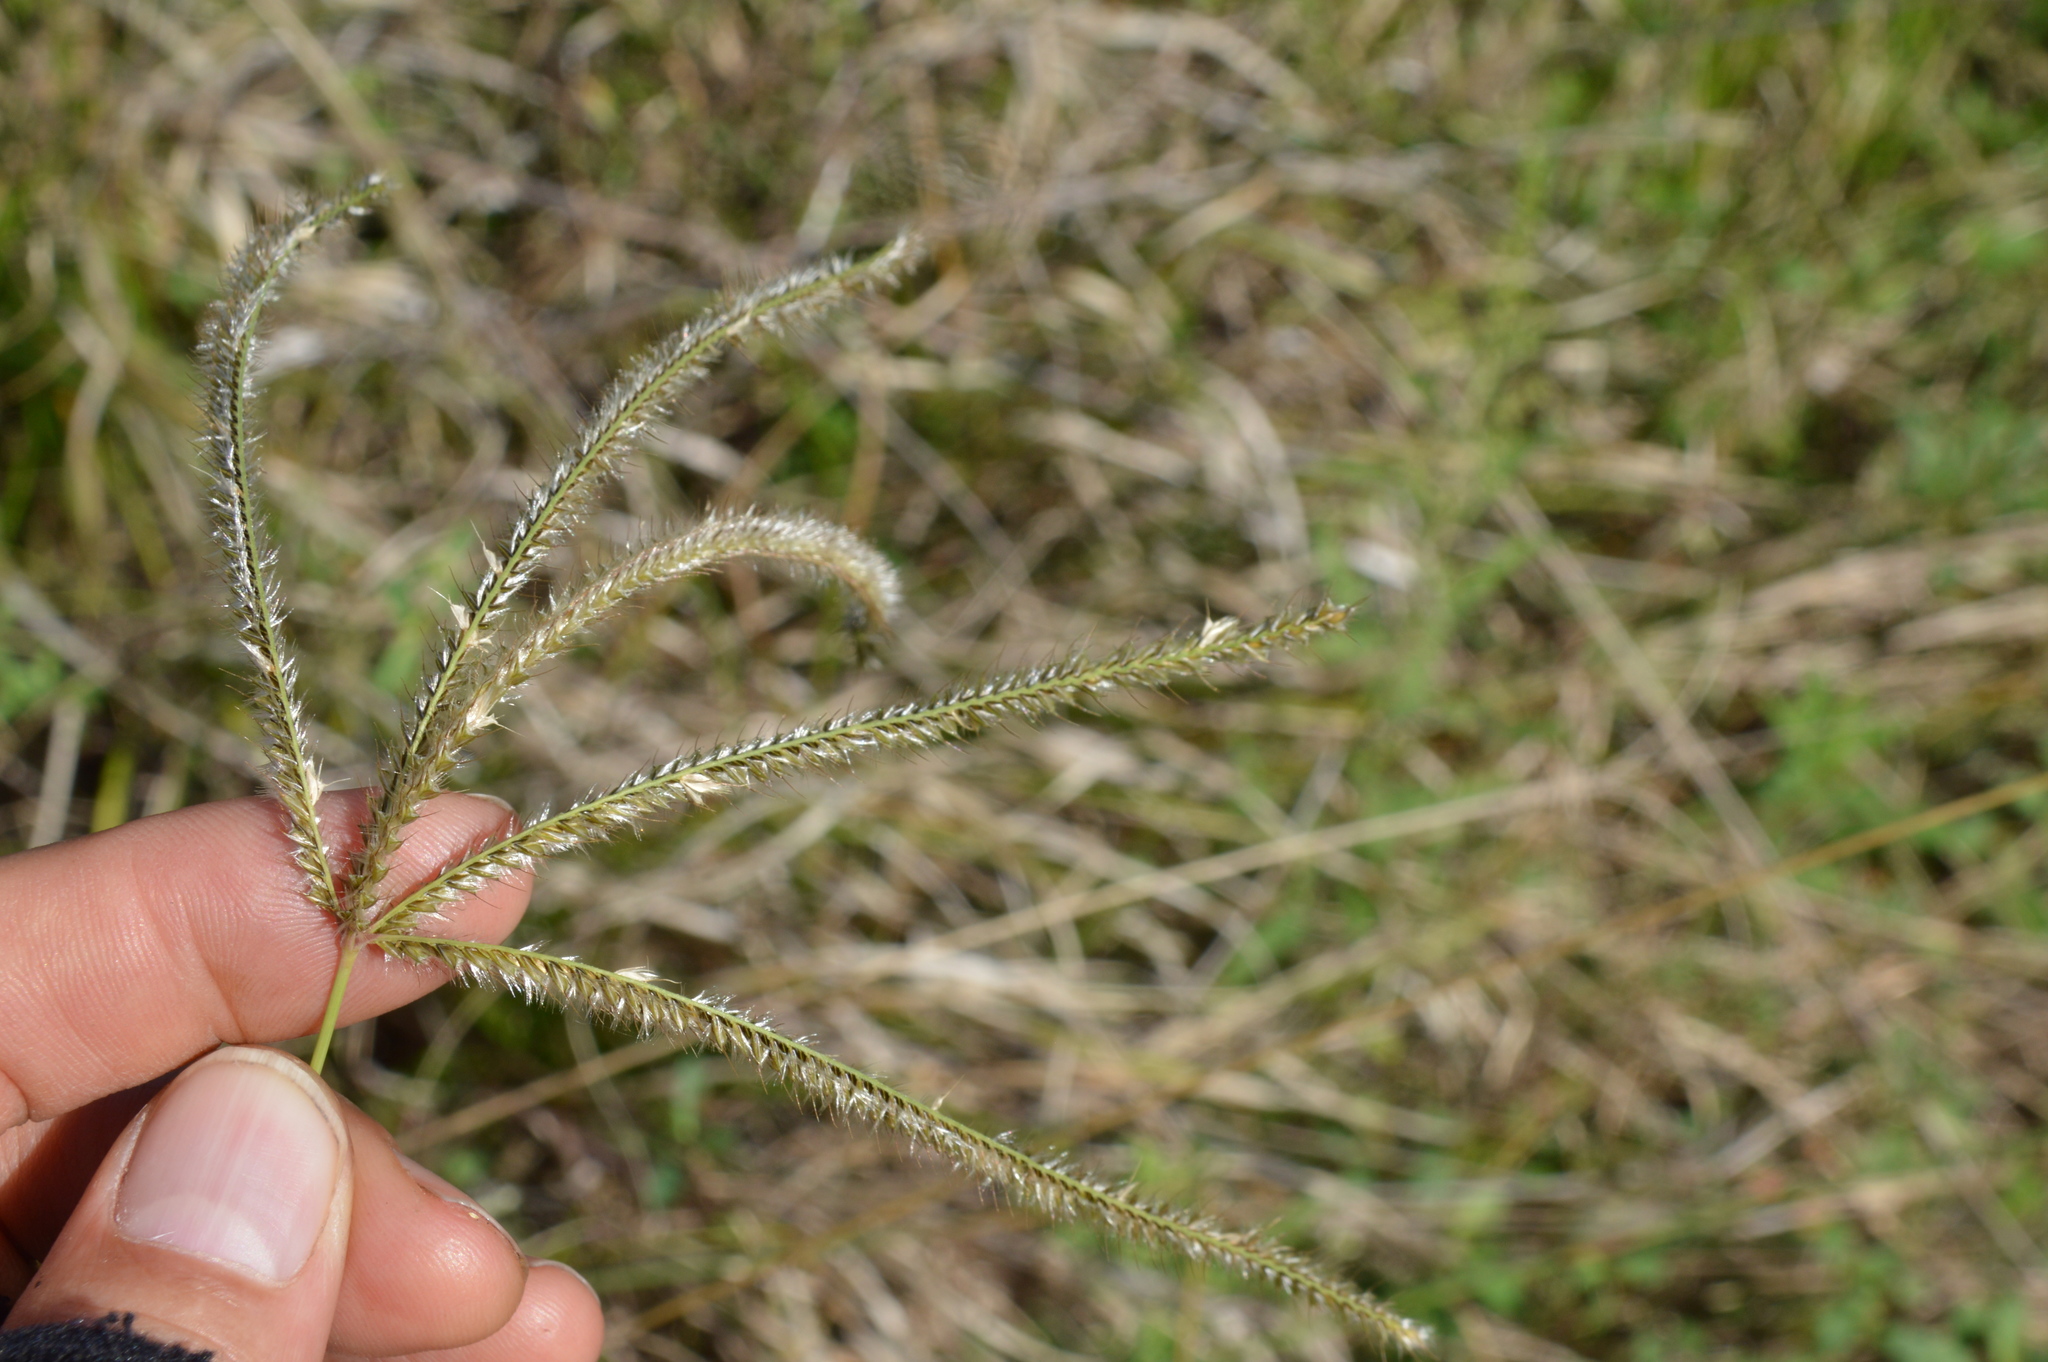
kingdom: Plantae
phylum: Tracheophyta
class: Liliopsida
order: Poales
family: Poaceae
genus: Stapfochloa
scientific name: Stapfochloa canterae
